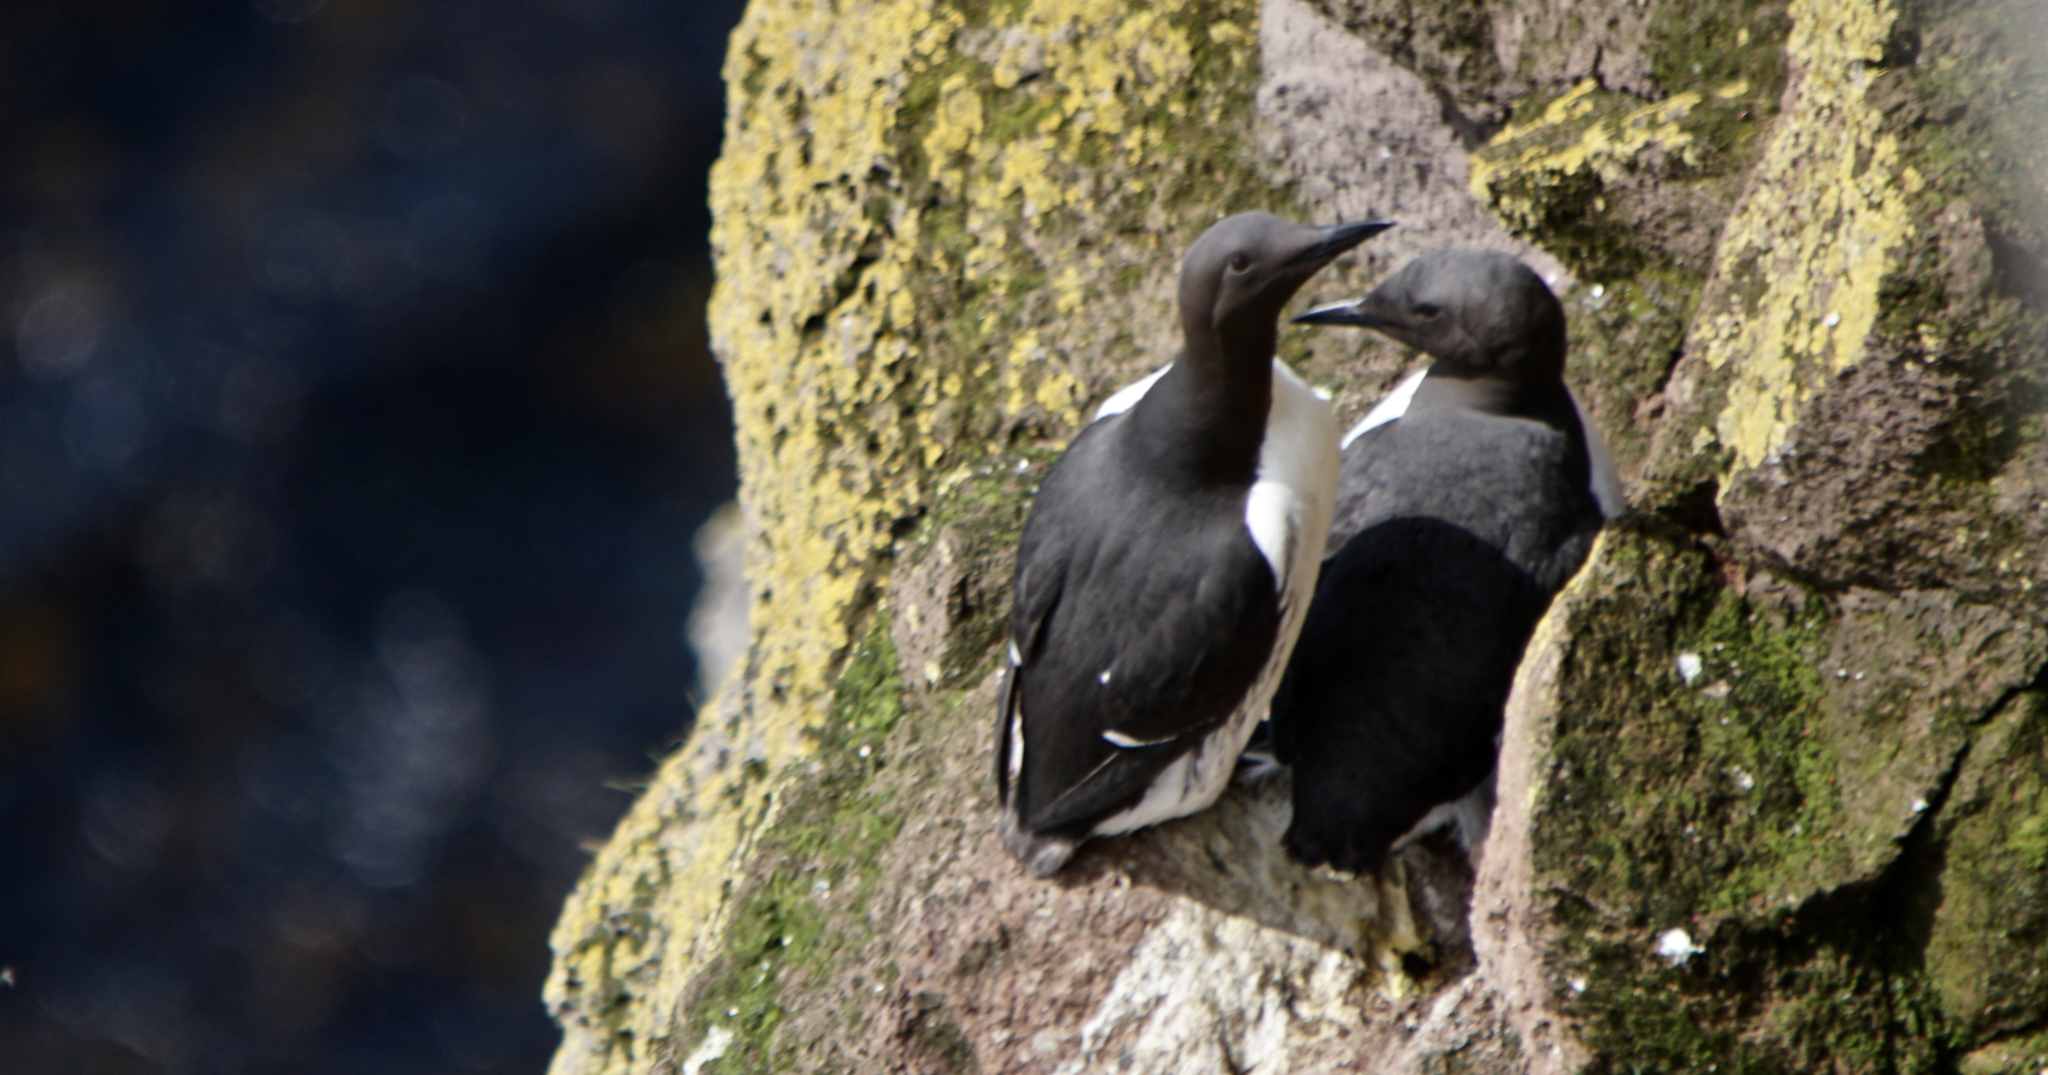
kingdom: Animalia
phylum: Chordata
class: Aves
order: Charadriiformes
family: Alcidae
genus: Uria
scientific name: Uria aalge
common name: Common murre
